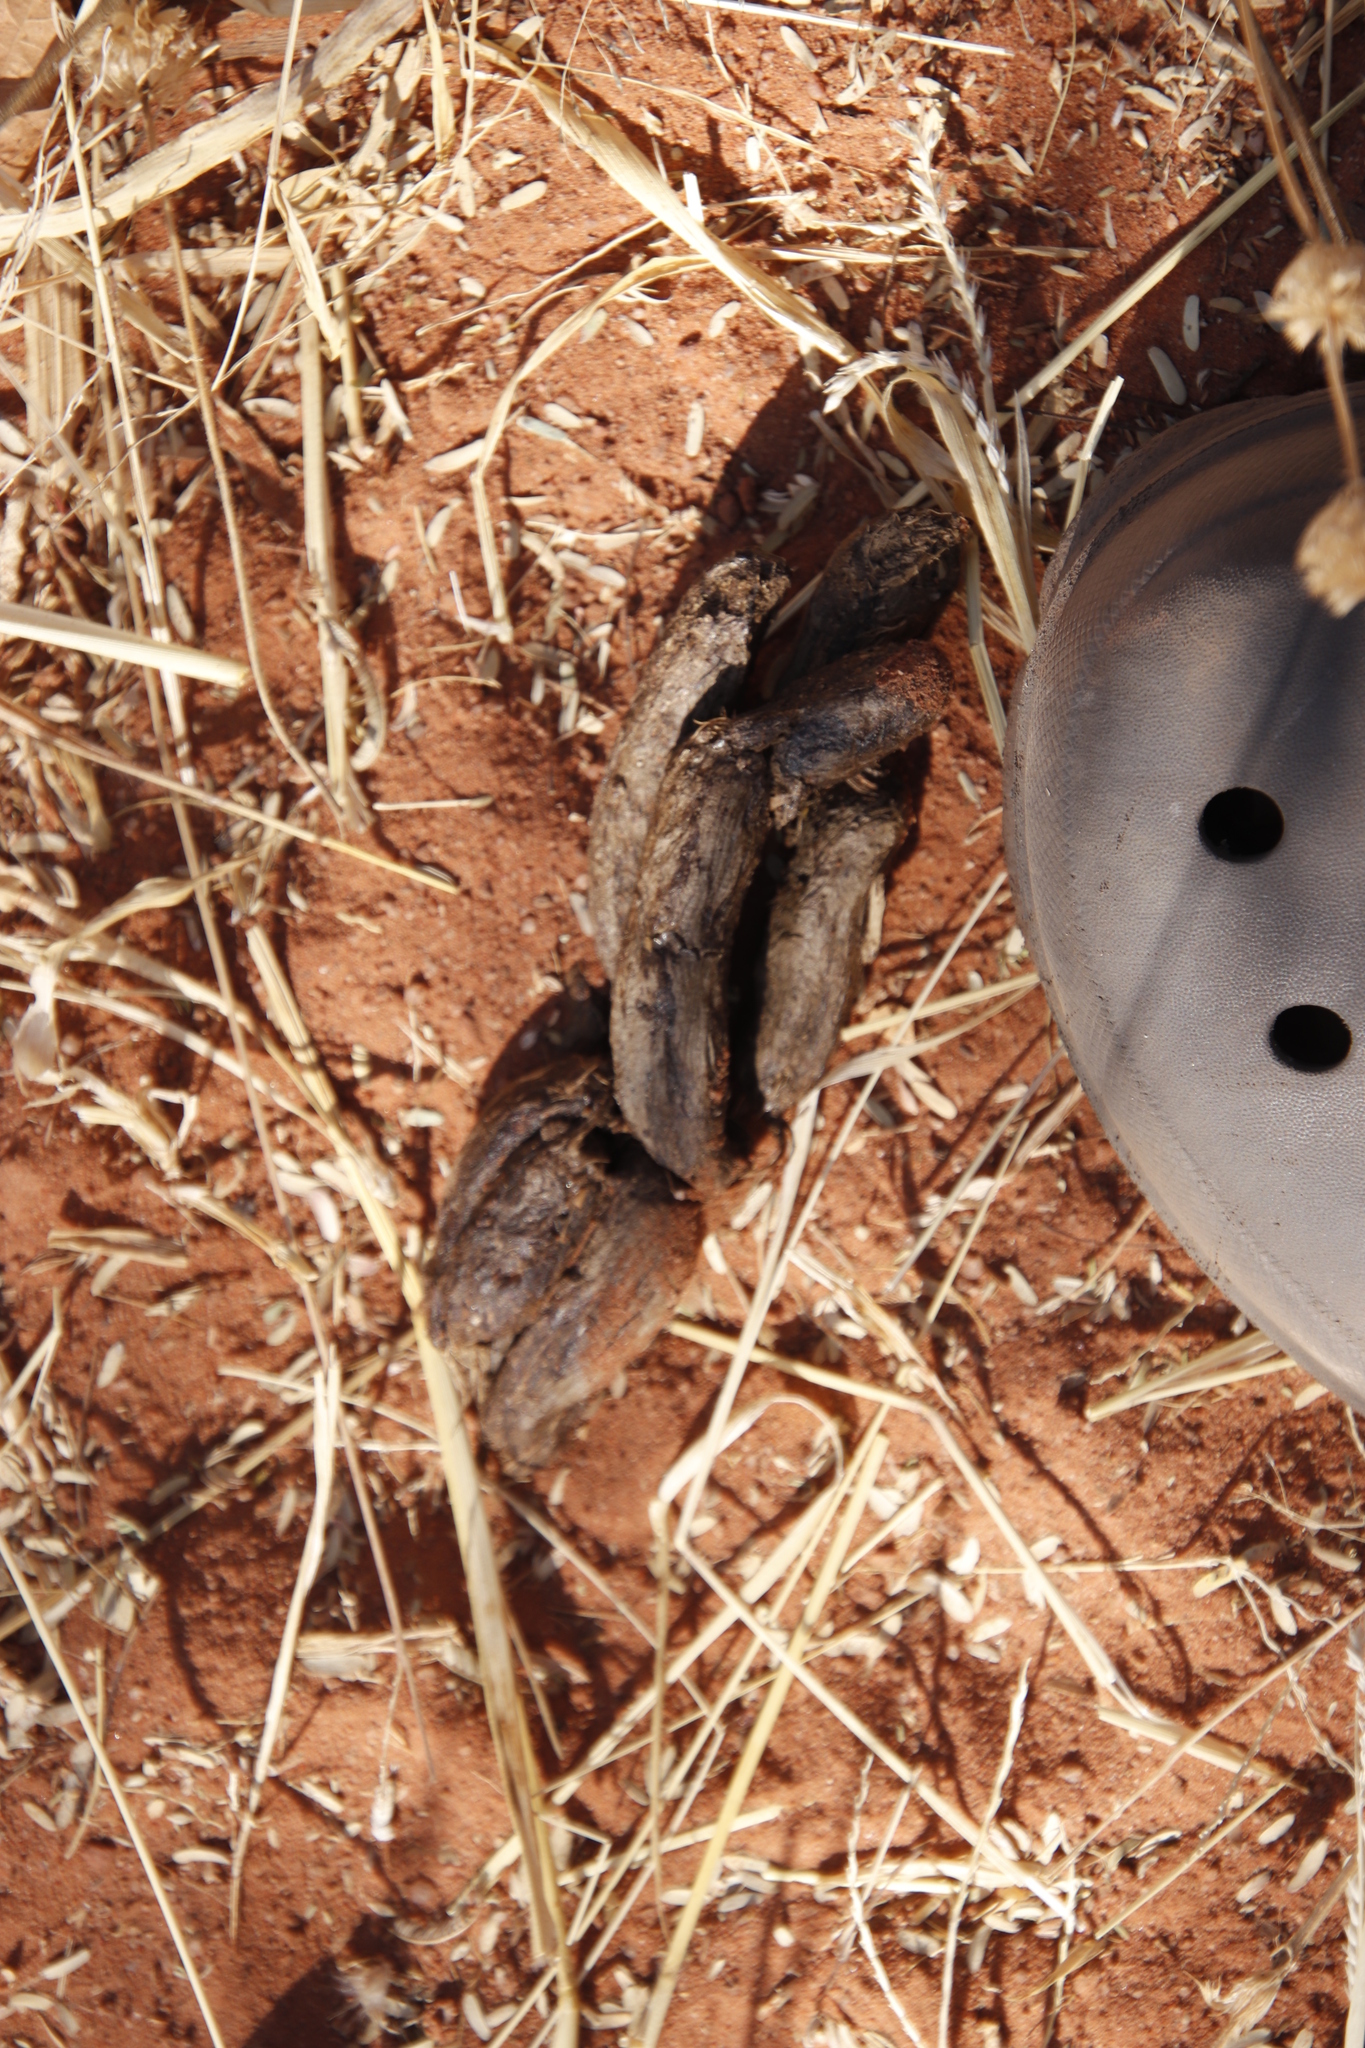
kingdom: Animalia
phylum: Chordata
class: Mammalia
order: Rodentia
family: Hystricidae
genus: Hystrix
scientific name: Hystrix africaeaustralis
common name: Cape porcupine
